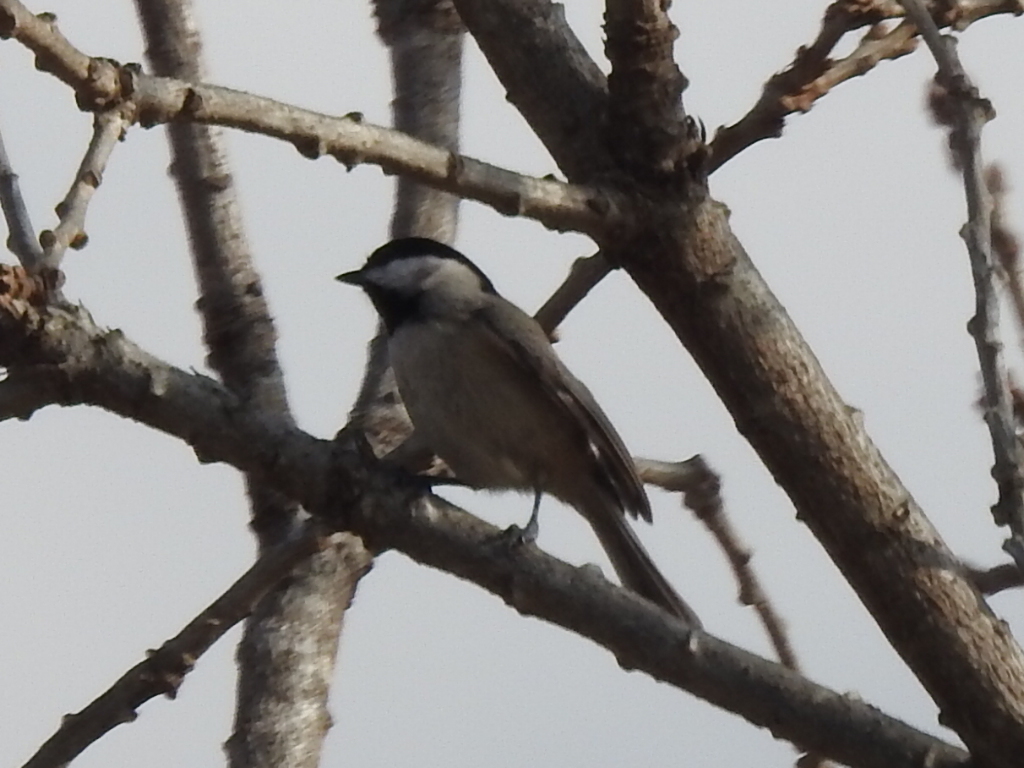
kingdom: Animalia
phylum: Chordata
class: Aves
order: Passeriformes
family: Paridae
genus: Poecile
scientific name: Poecile carolinensis
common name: Carolina chickadee
